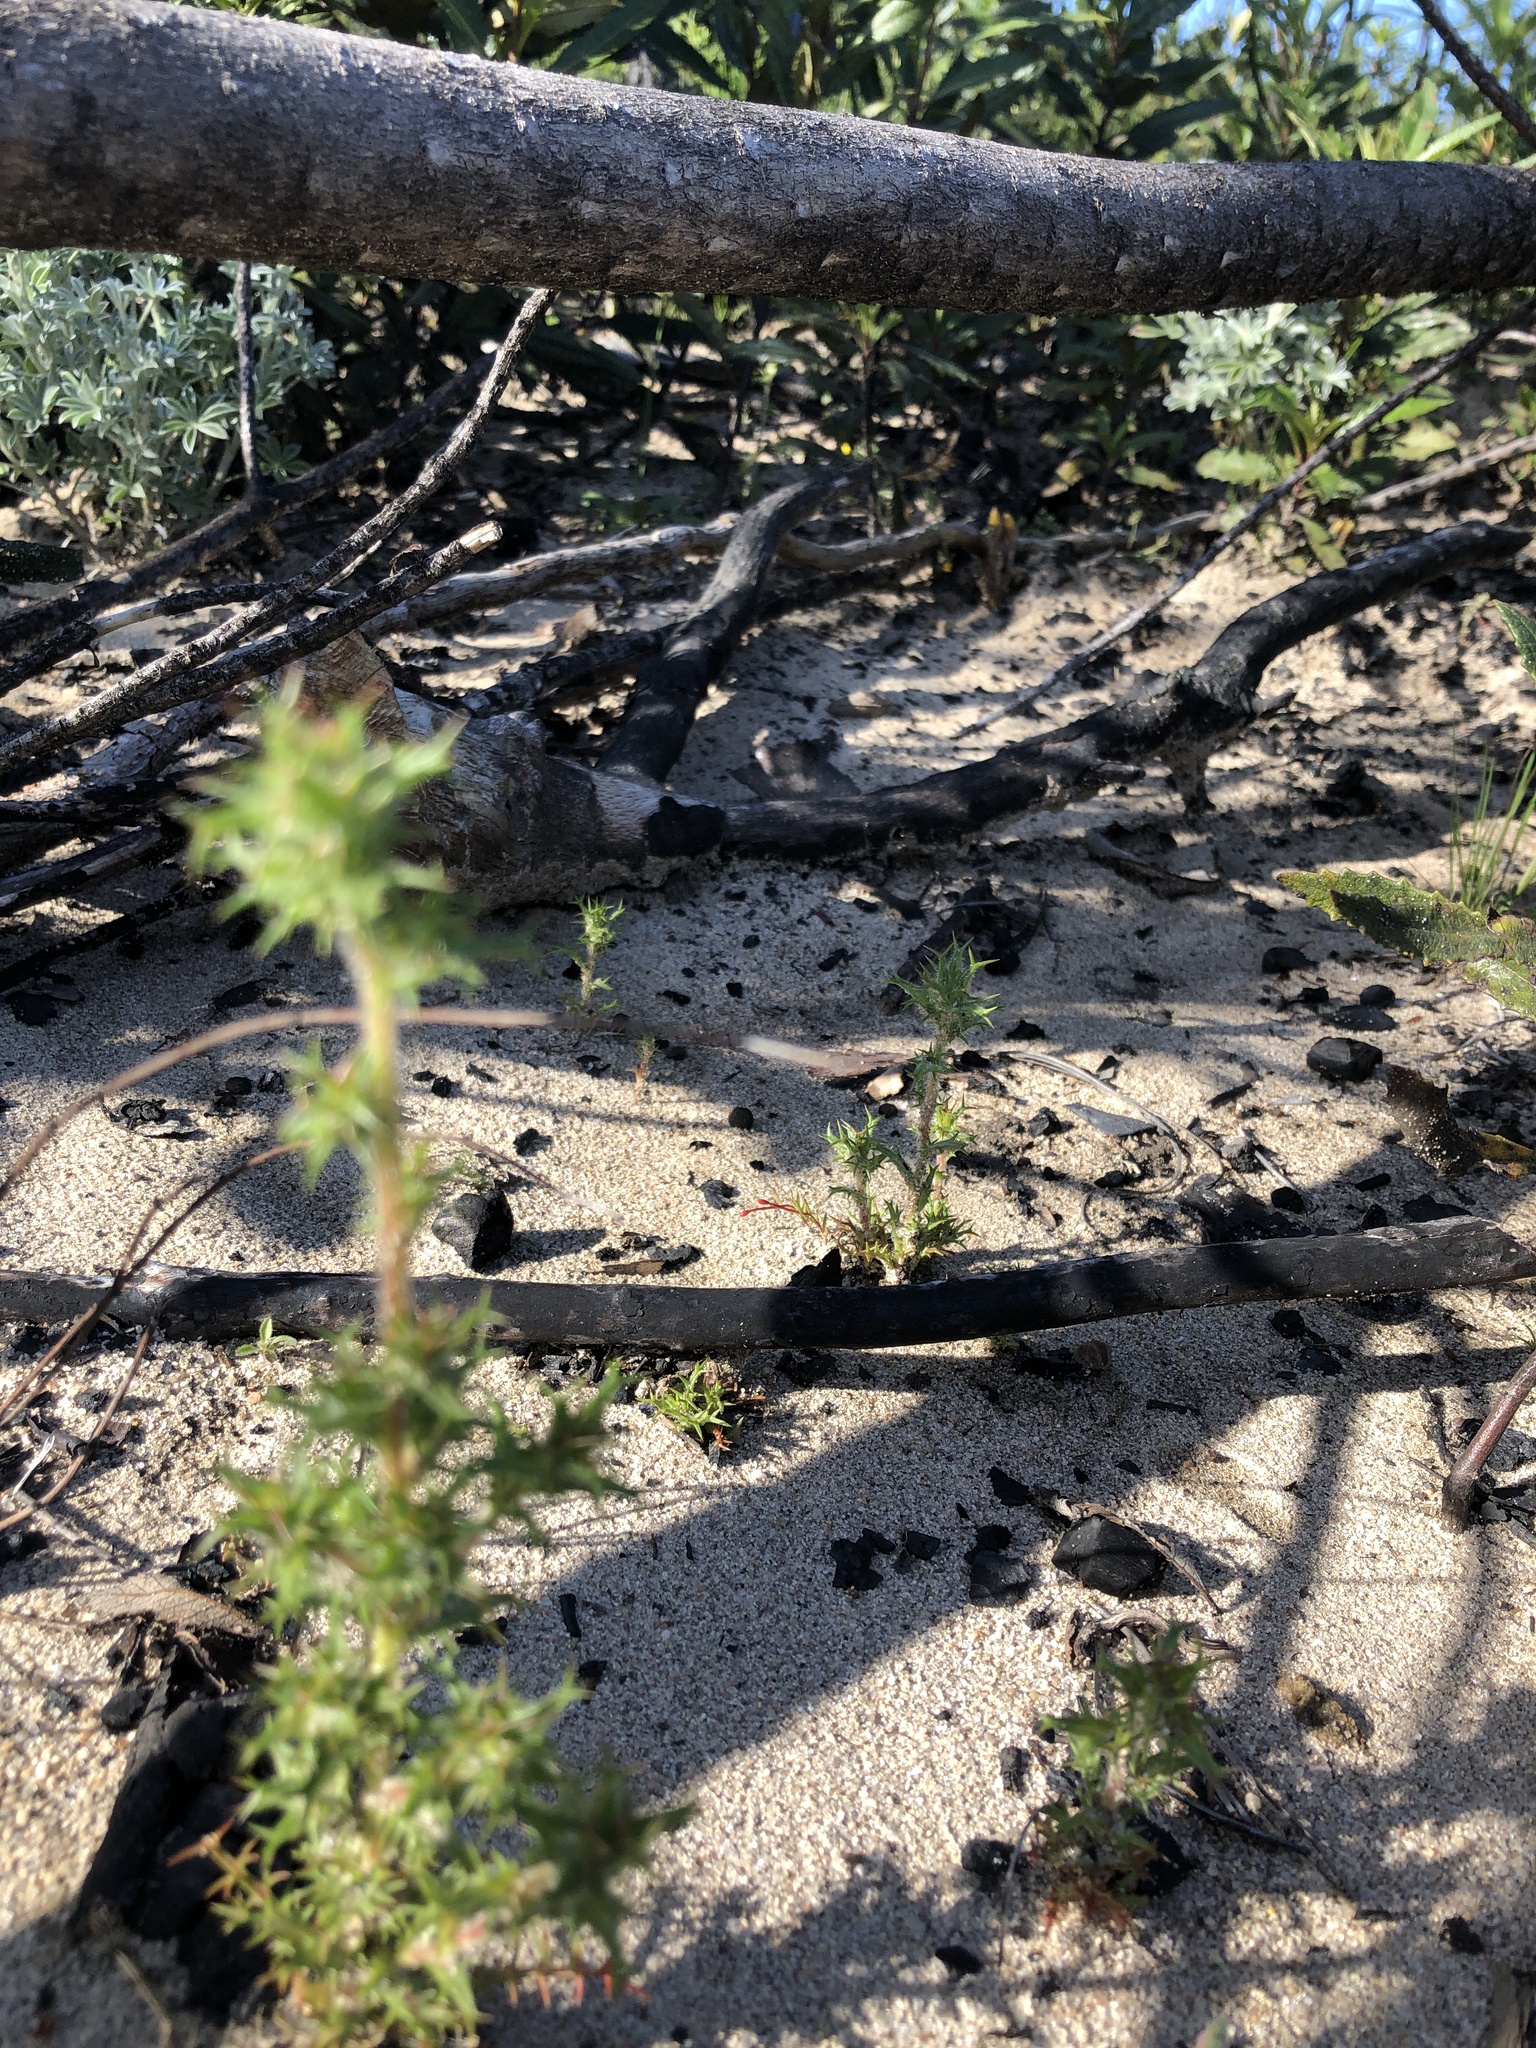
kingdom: Plantae
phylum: Tracheophyta
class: Magnoliopsida
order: Ericales
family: Polemoniaceae
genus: Navarretia
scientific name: Navarretia hamata
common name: Hooked navarretia
